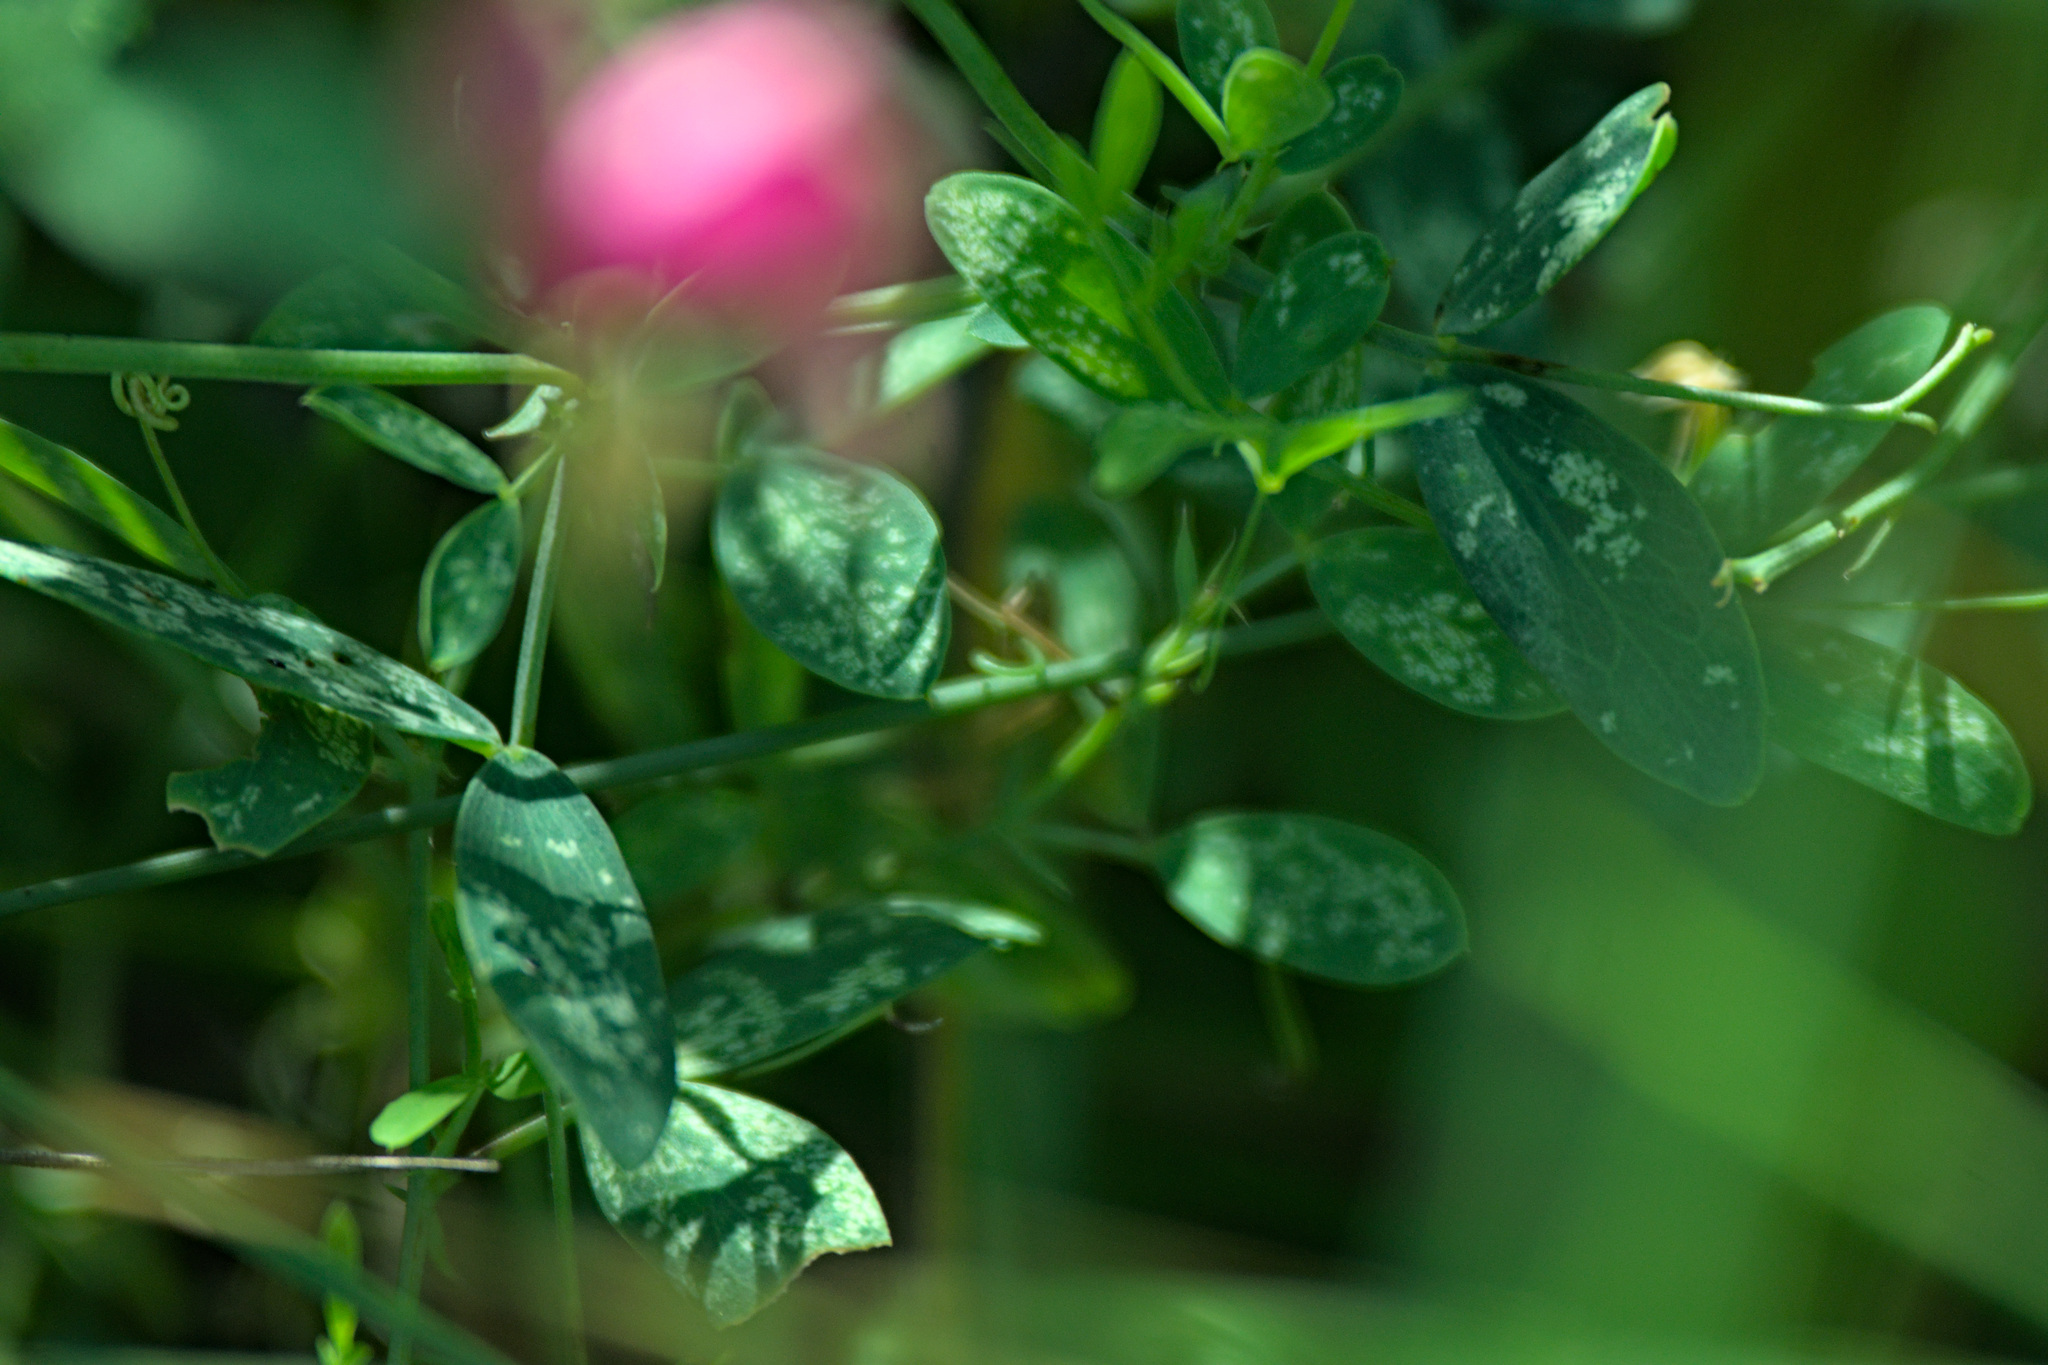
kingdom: Plantae
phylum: Tracheophyta
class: Magnoliopsida
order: Fabales
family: Fabaceae
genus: Lathyrus
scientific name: Lathyrus tuberosus
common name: Tuberous pea
